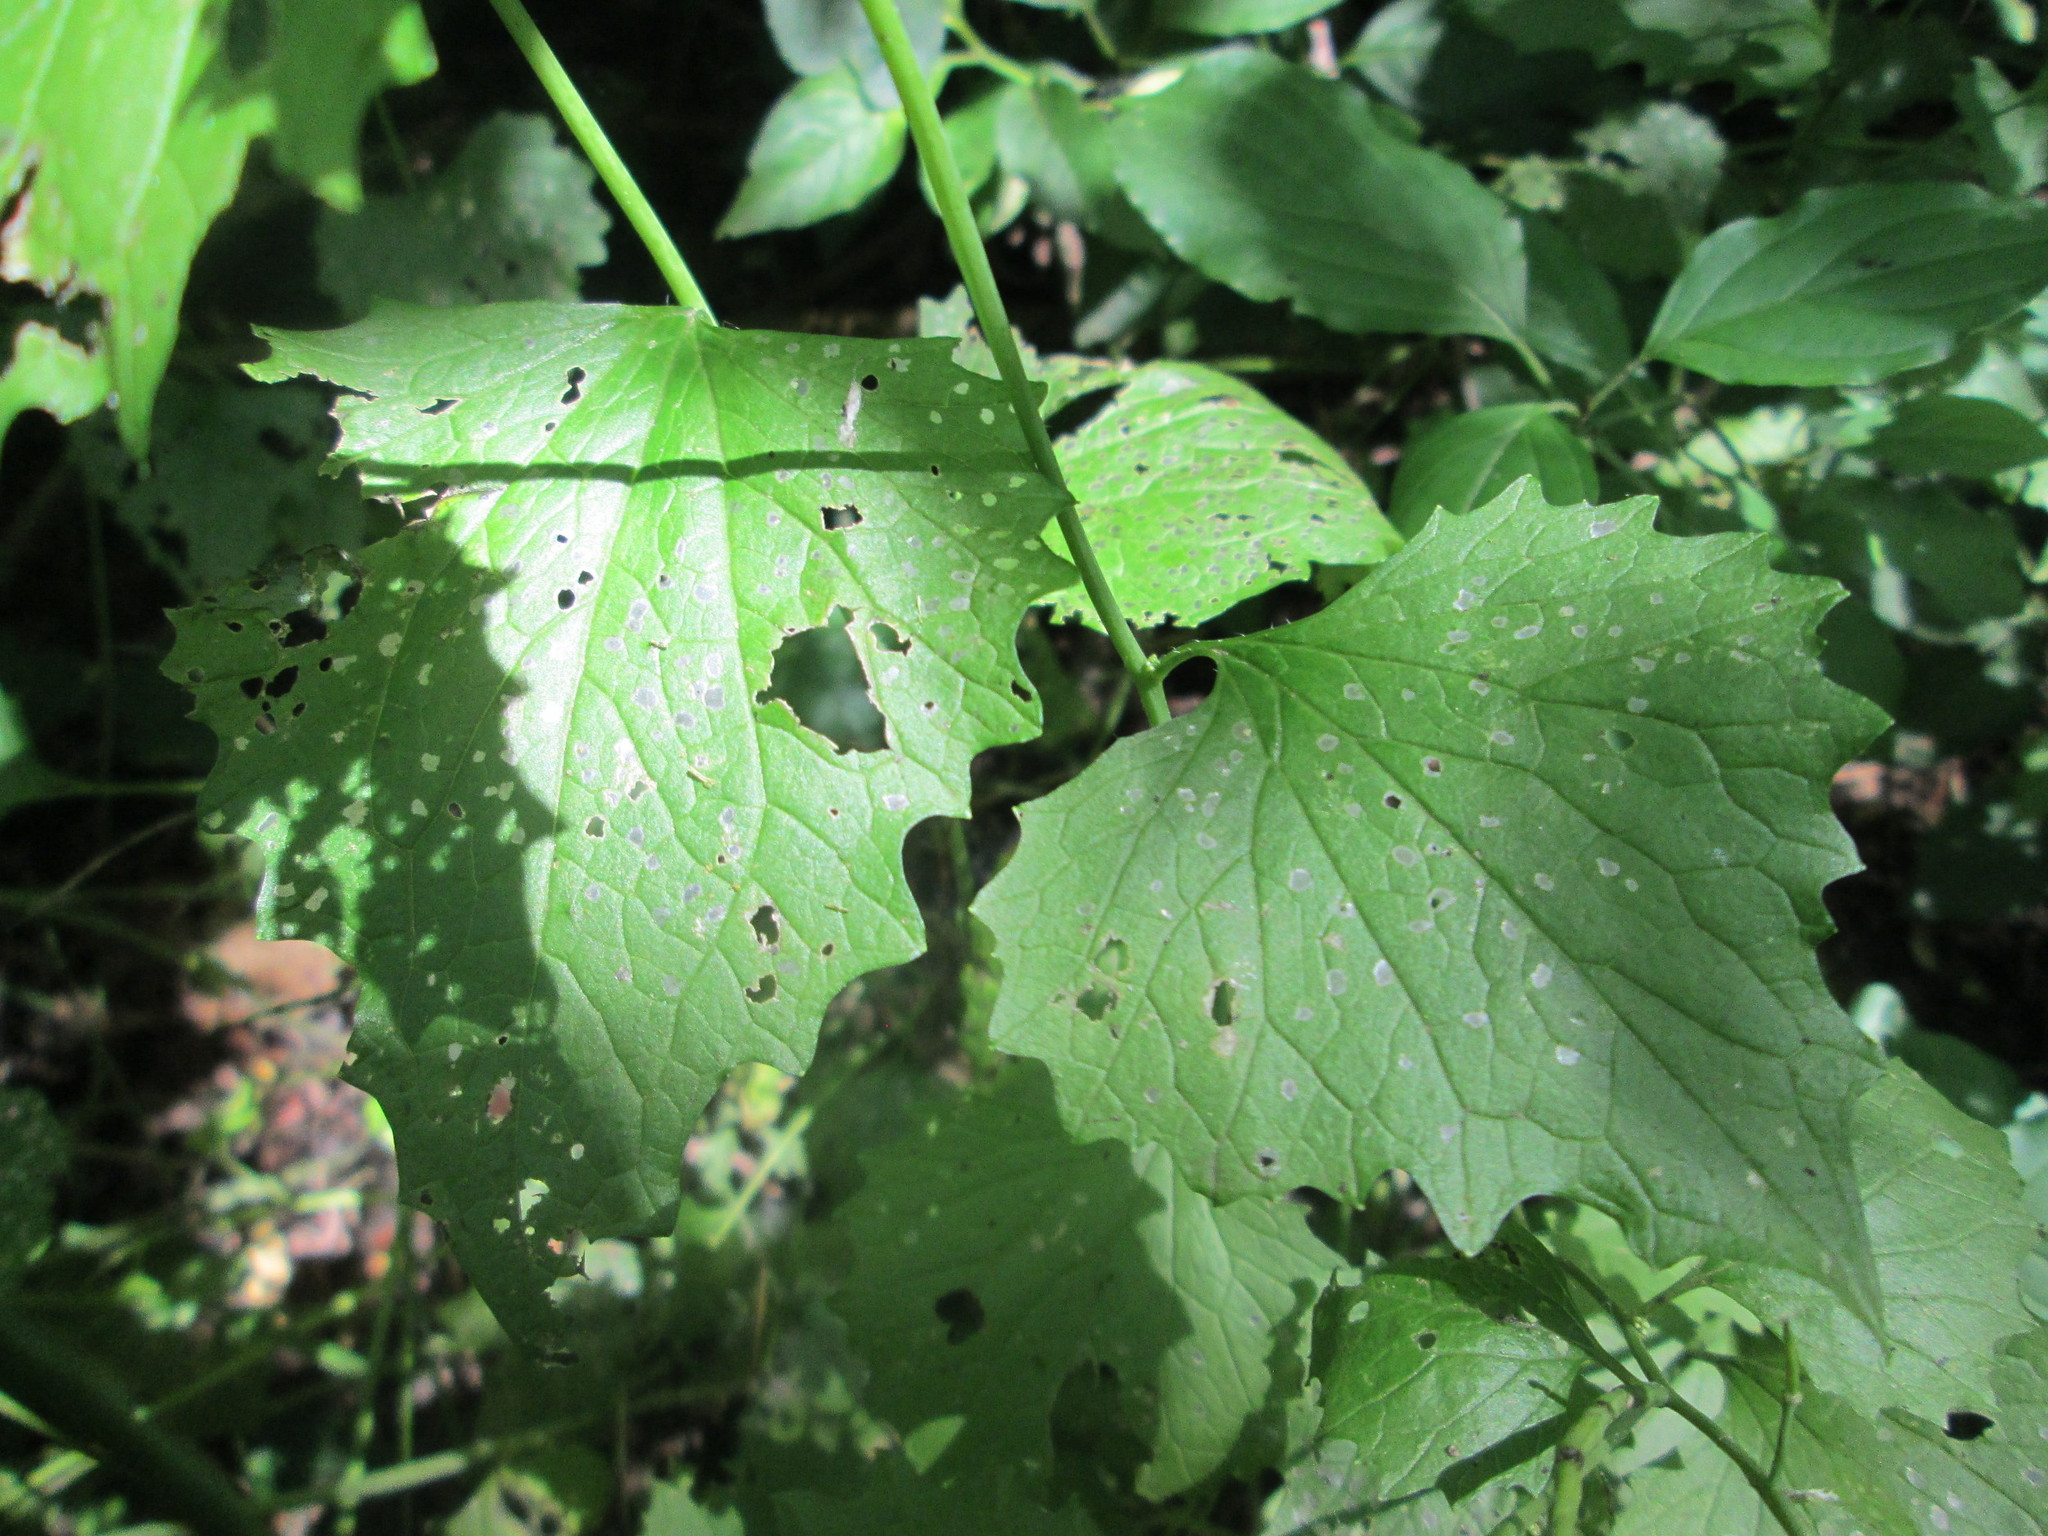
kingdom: Plantae
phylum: Tracheophyta
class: Magnoliopsida
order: Brassicales
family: Brassicaceae
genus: Alliaria
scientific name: Alliaria petiolata
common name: Garlic mustard
